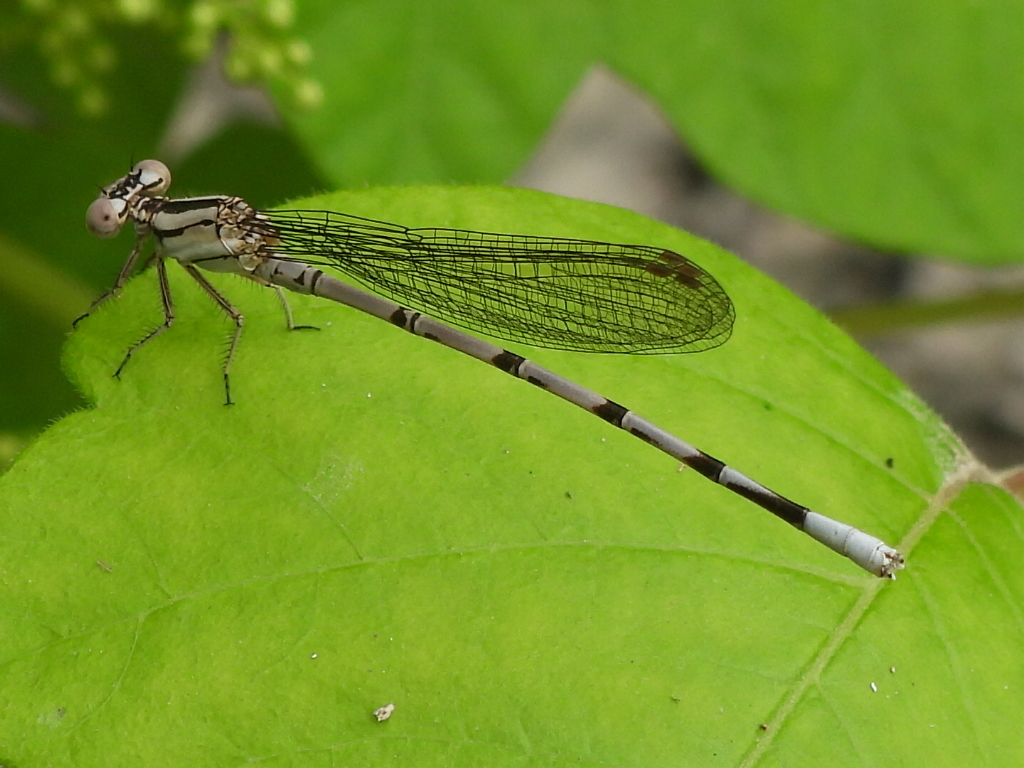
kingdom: Animalia
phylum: Arthropoda
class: Insecta
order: Odonata
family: Coenagrionidae
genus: Argia
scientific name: Argia funebris
